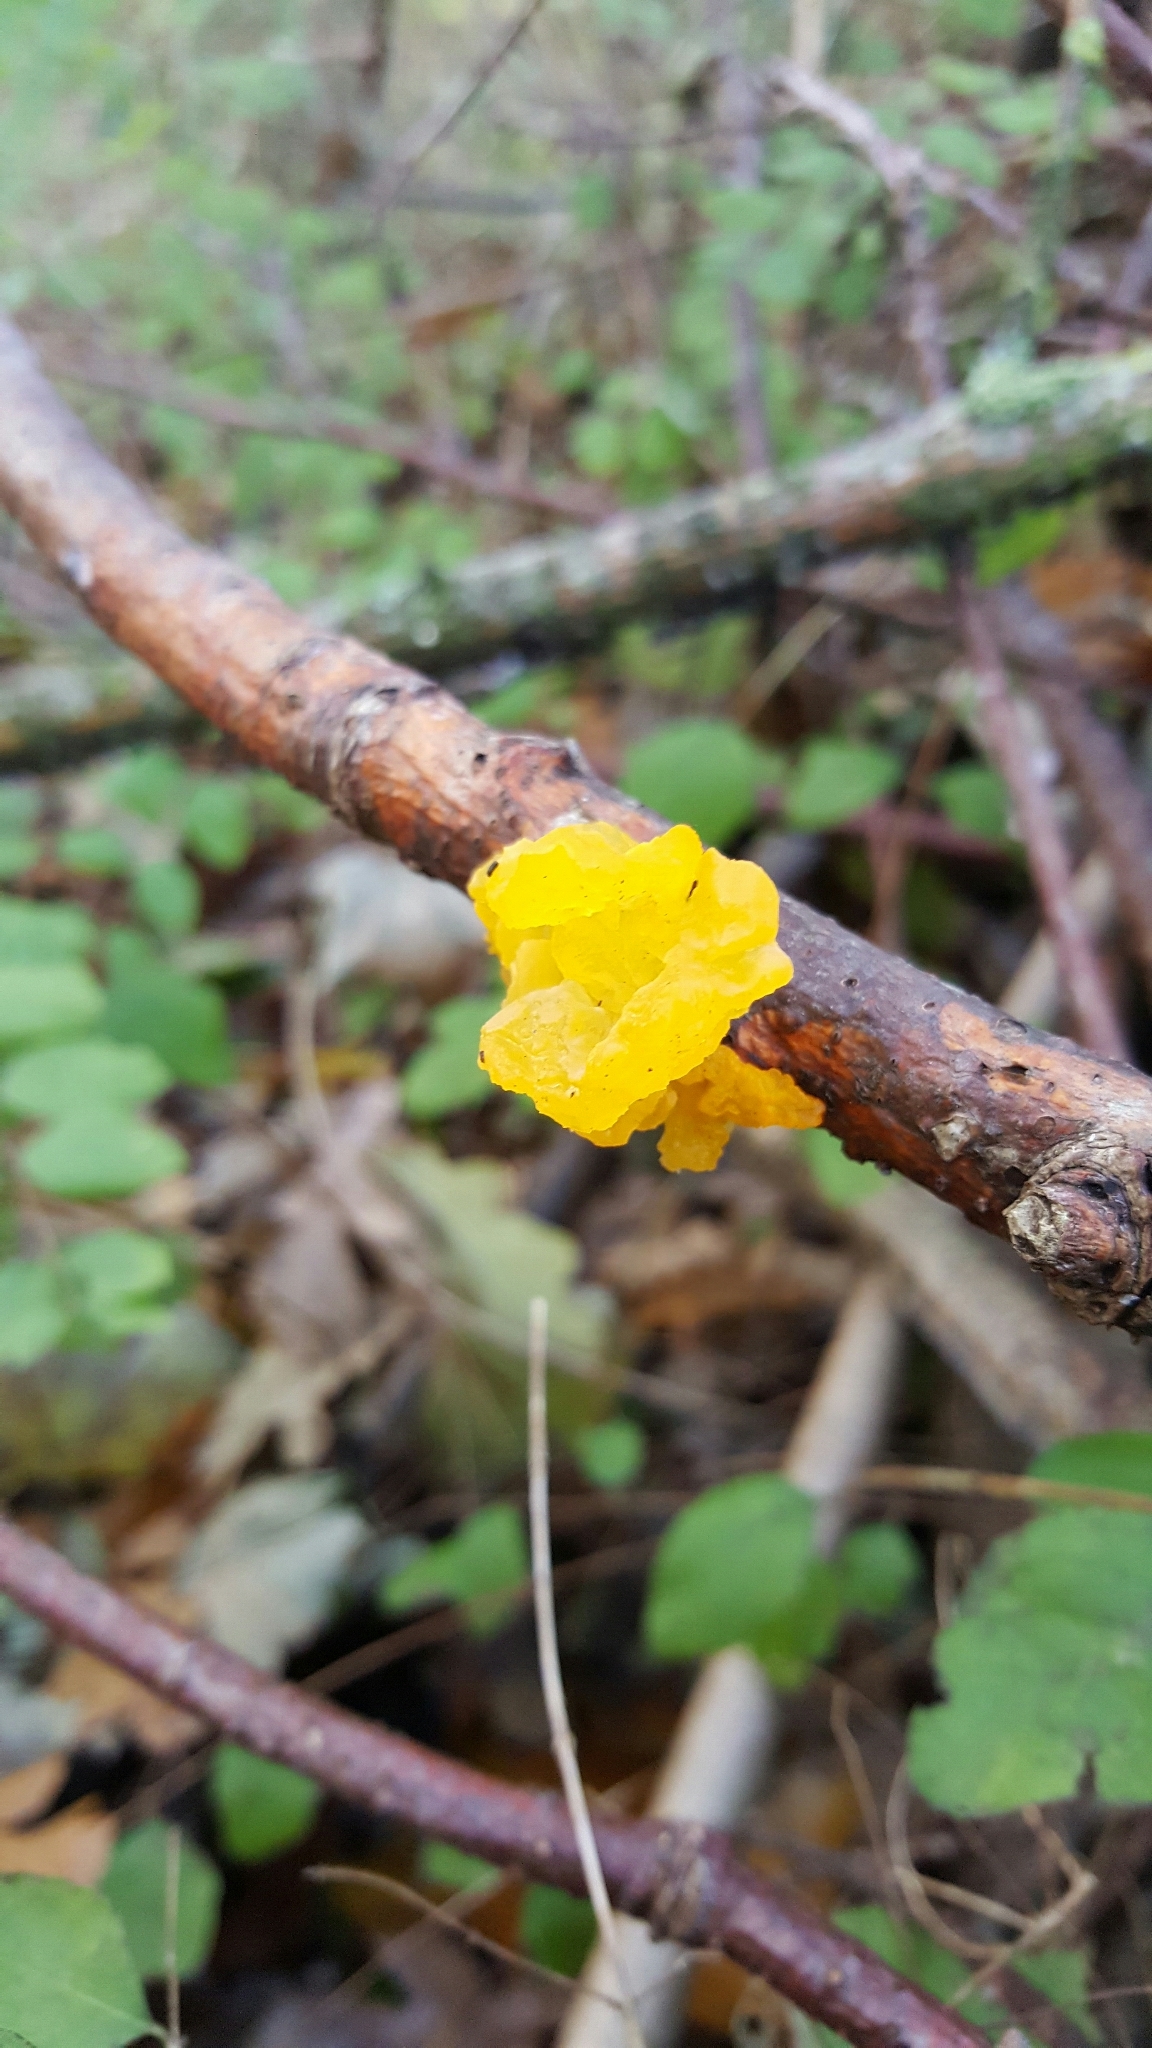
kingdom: Fungi
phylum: Basidiomycota
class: Tremellomycetes
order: Tremellales
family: Tremellaceae
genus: Tremella
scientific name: Tremella mesenterica
